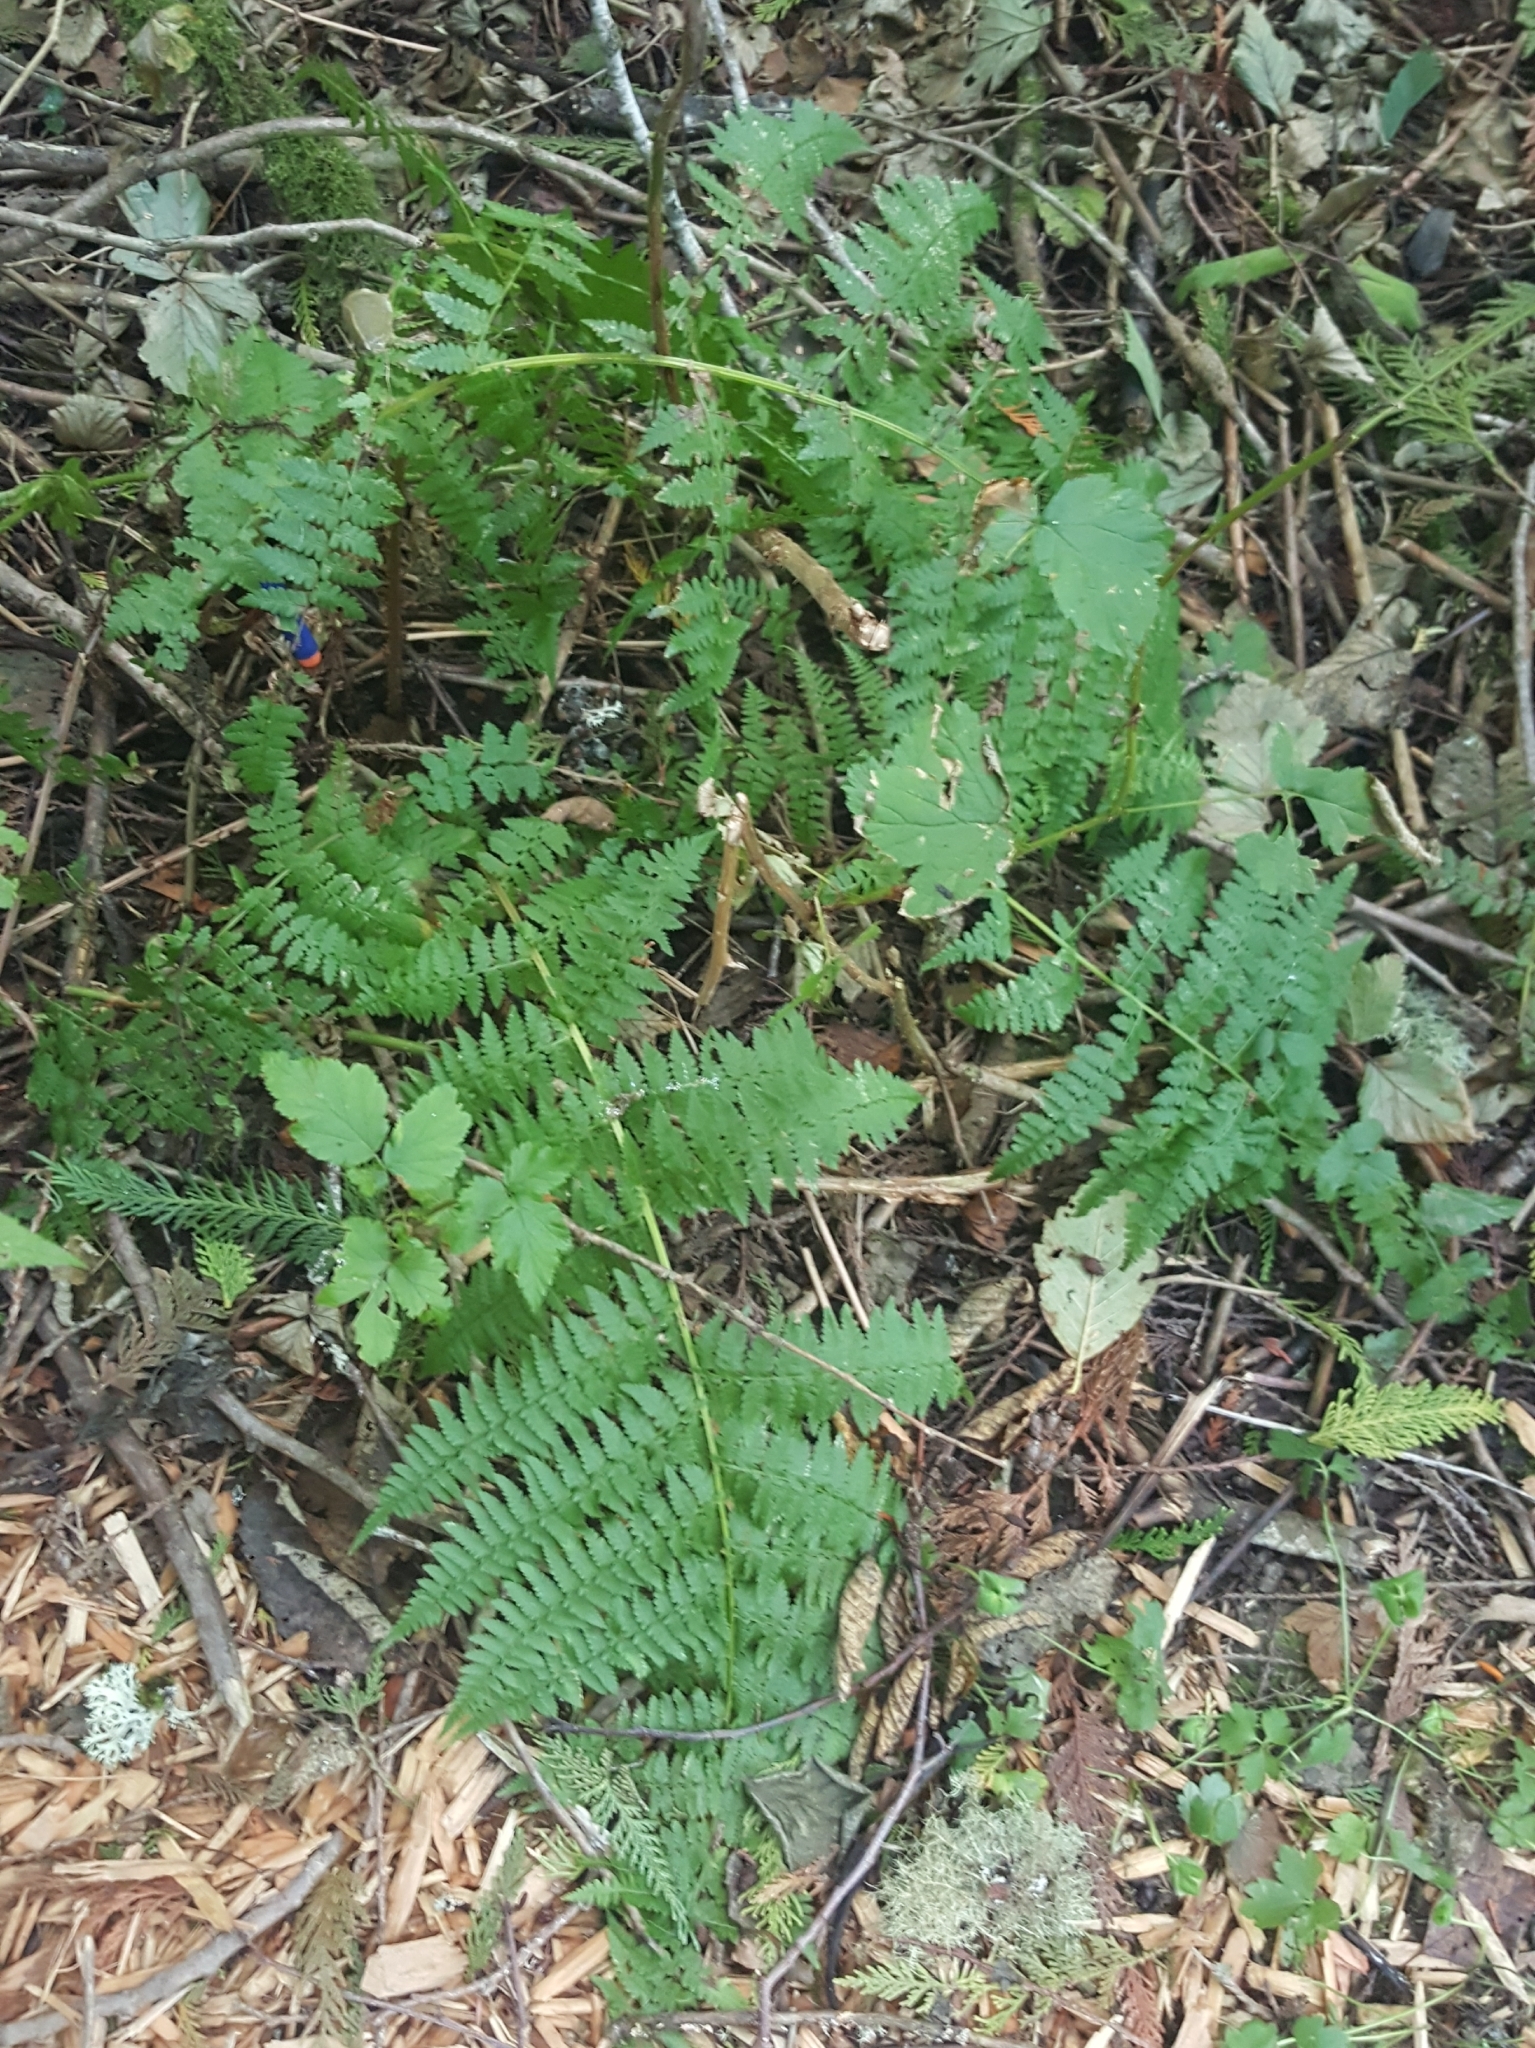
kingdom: Plantae
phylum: Tracheophyta
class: Polypodiopsida
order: Polypodiales
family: Athyriaceae
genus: Athyrium
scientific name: Athyrium cyclosorum
